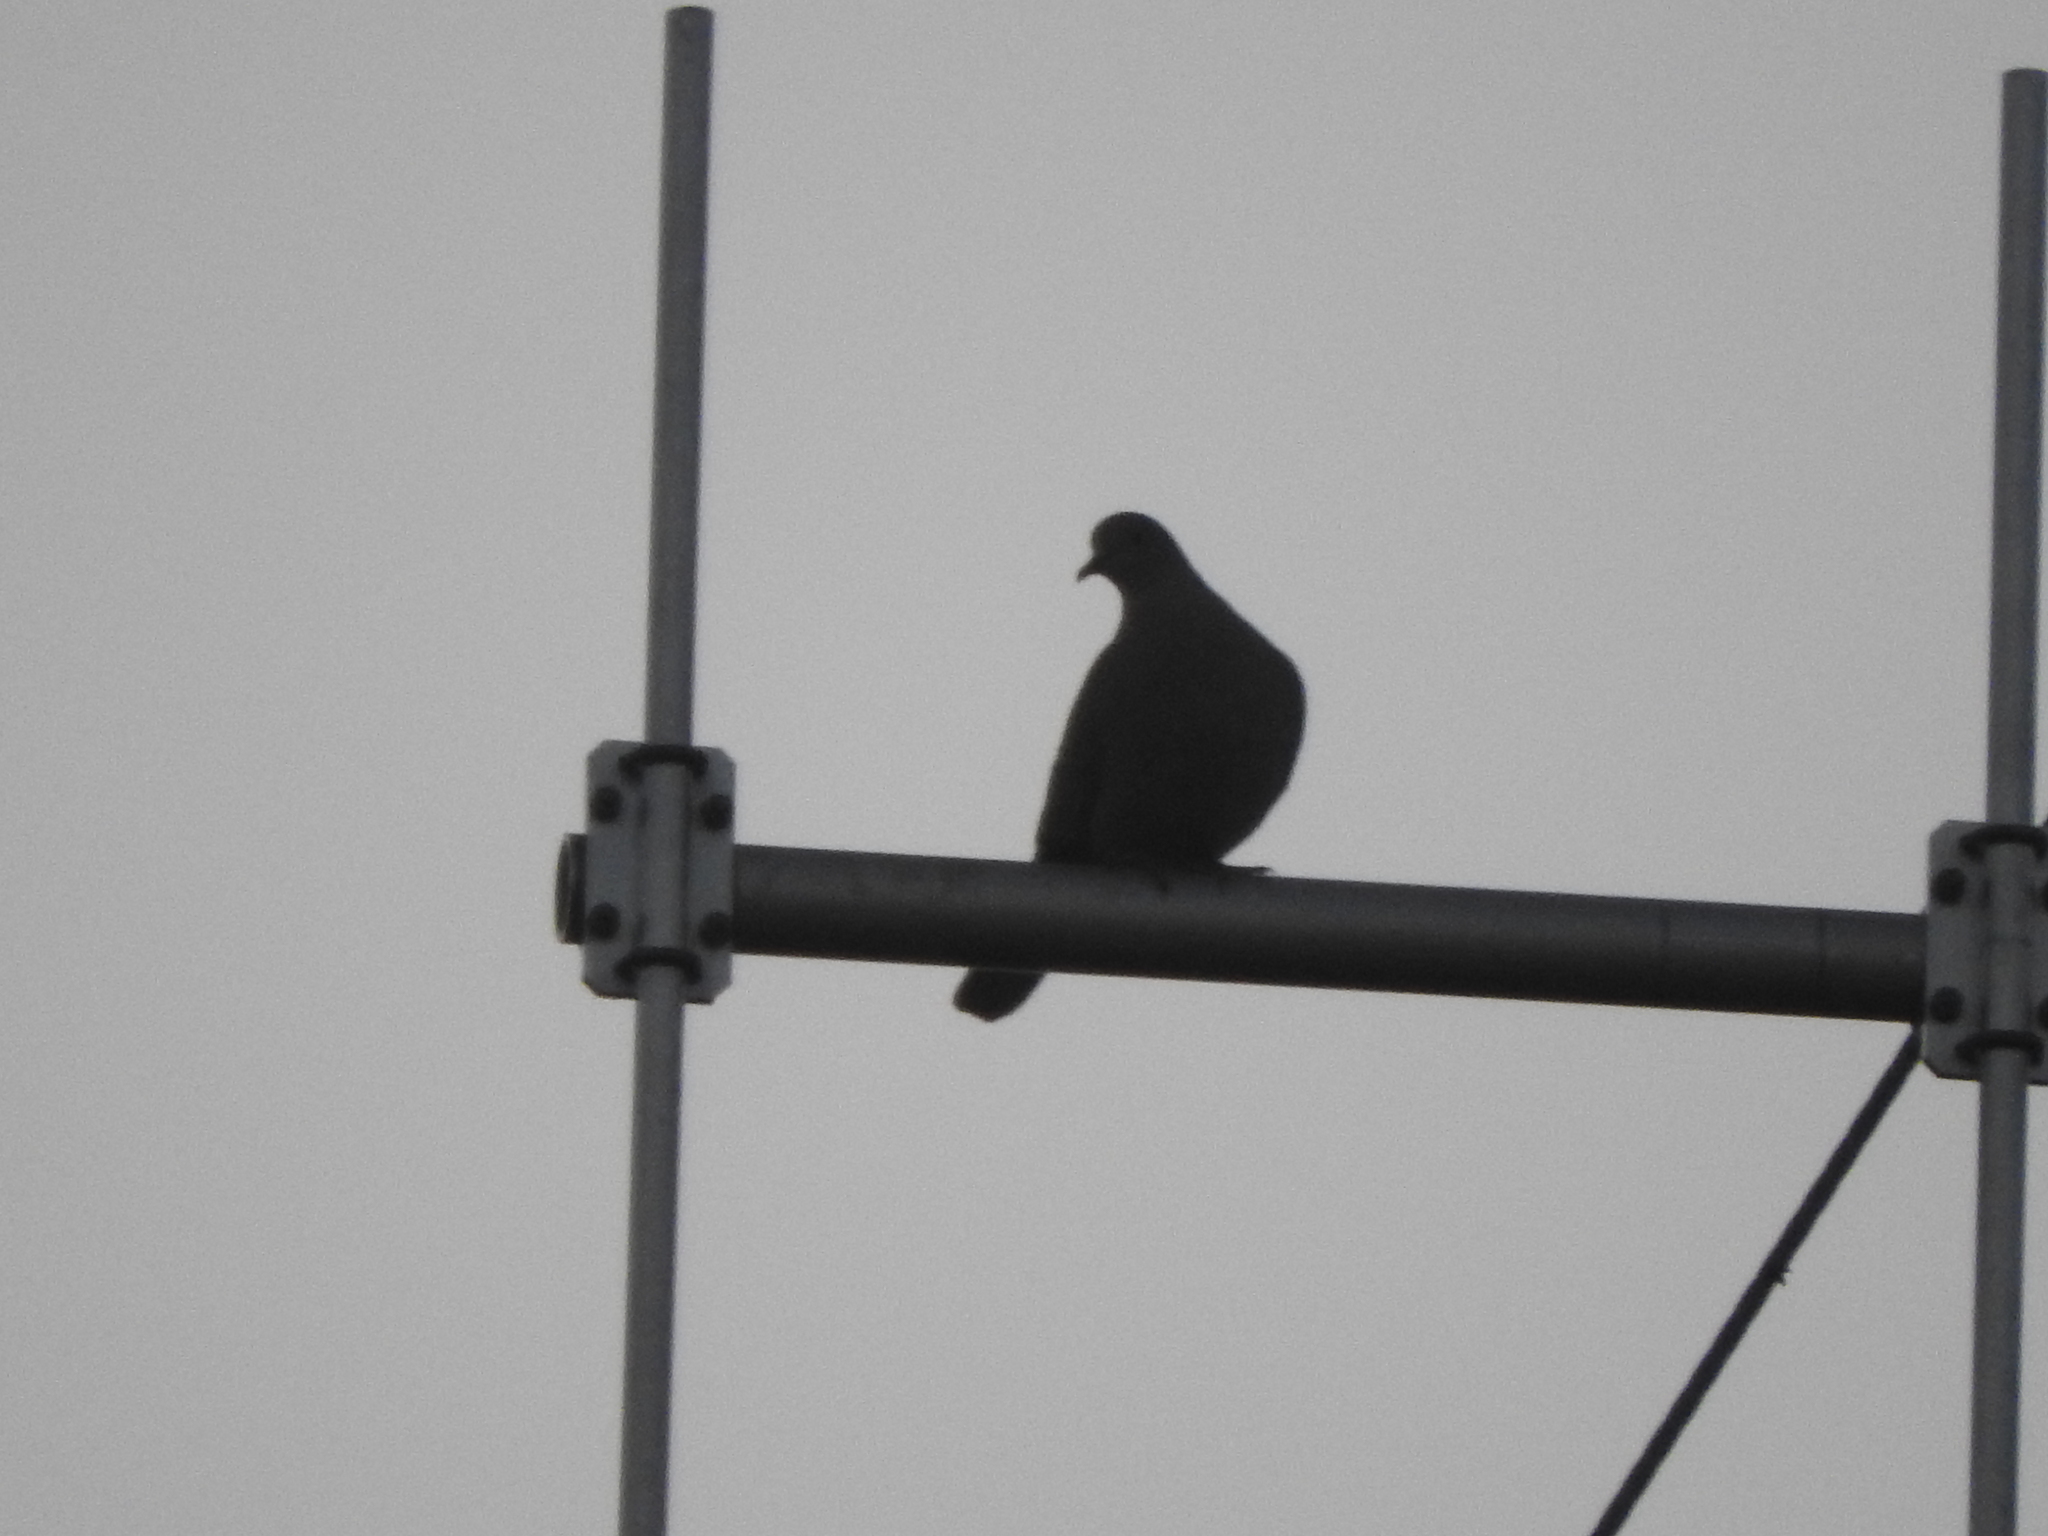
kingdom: Animalia
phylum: Chordata
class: Aves
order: Columbiformes
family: Columbidae
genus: Streptopelia
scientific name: Streptopelia decaocto
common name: Eurasian collared dove
